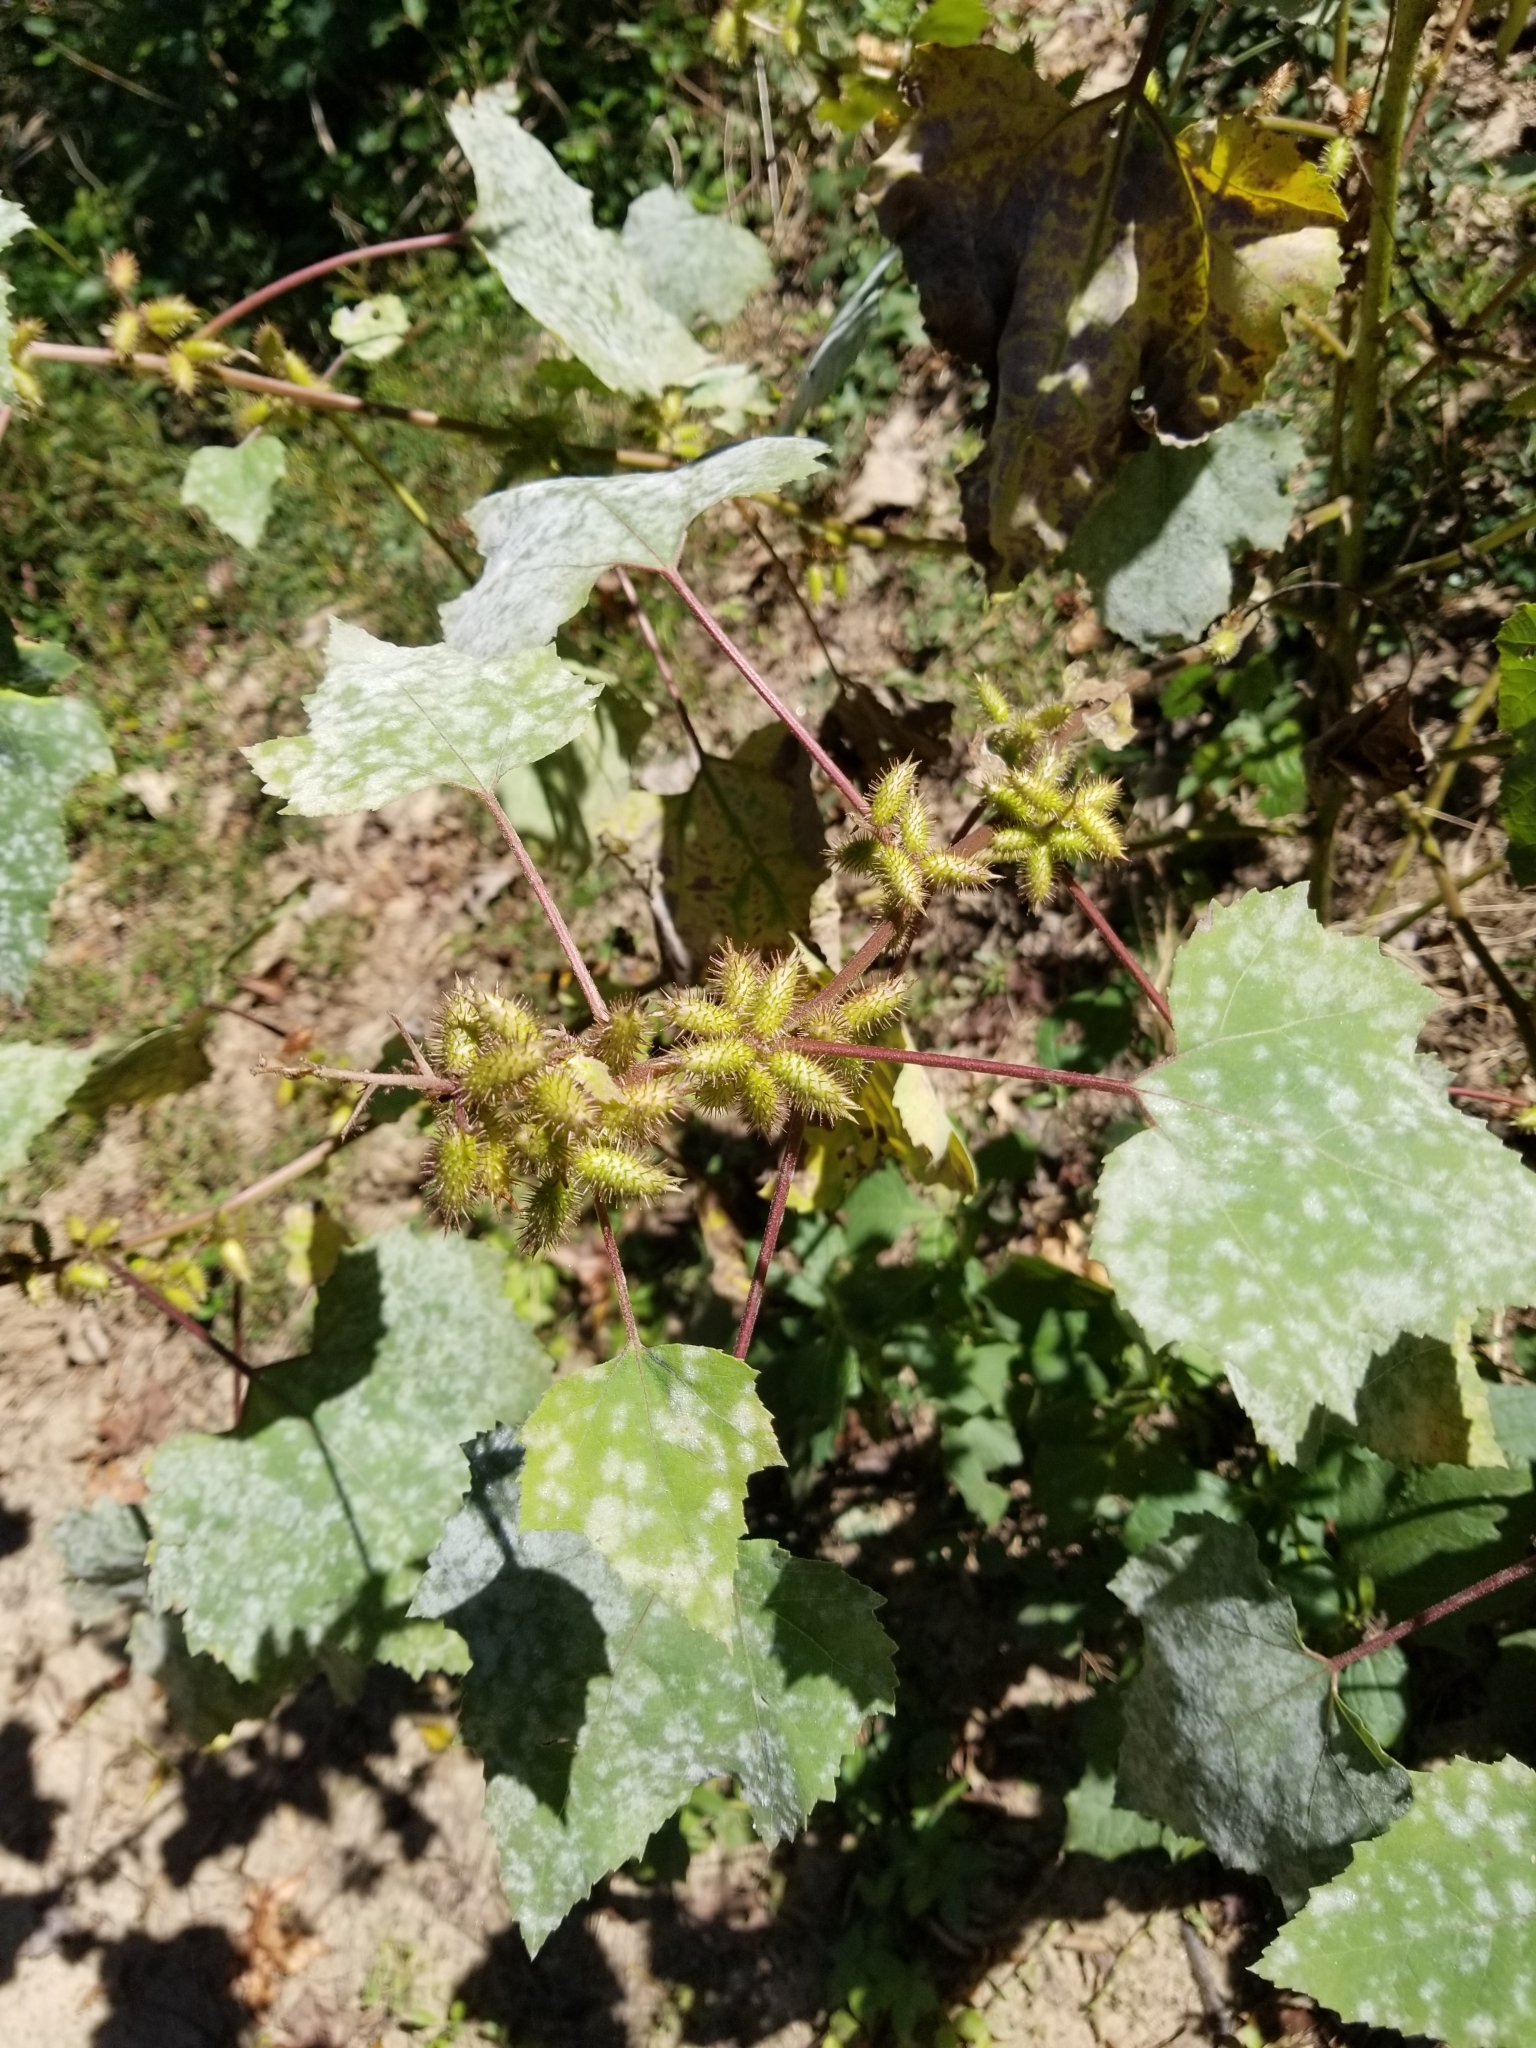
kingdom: Plantae
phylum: Tracheophyta
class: Magnoliopsida
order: Asterales
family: Asteraceae
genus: Xanthium
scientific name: Xanthium strumarium
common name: Rough cocklebur
